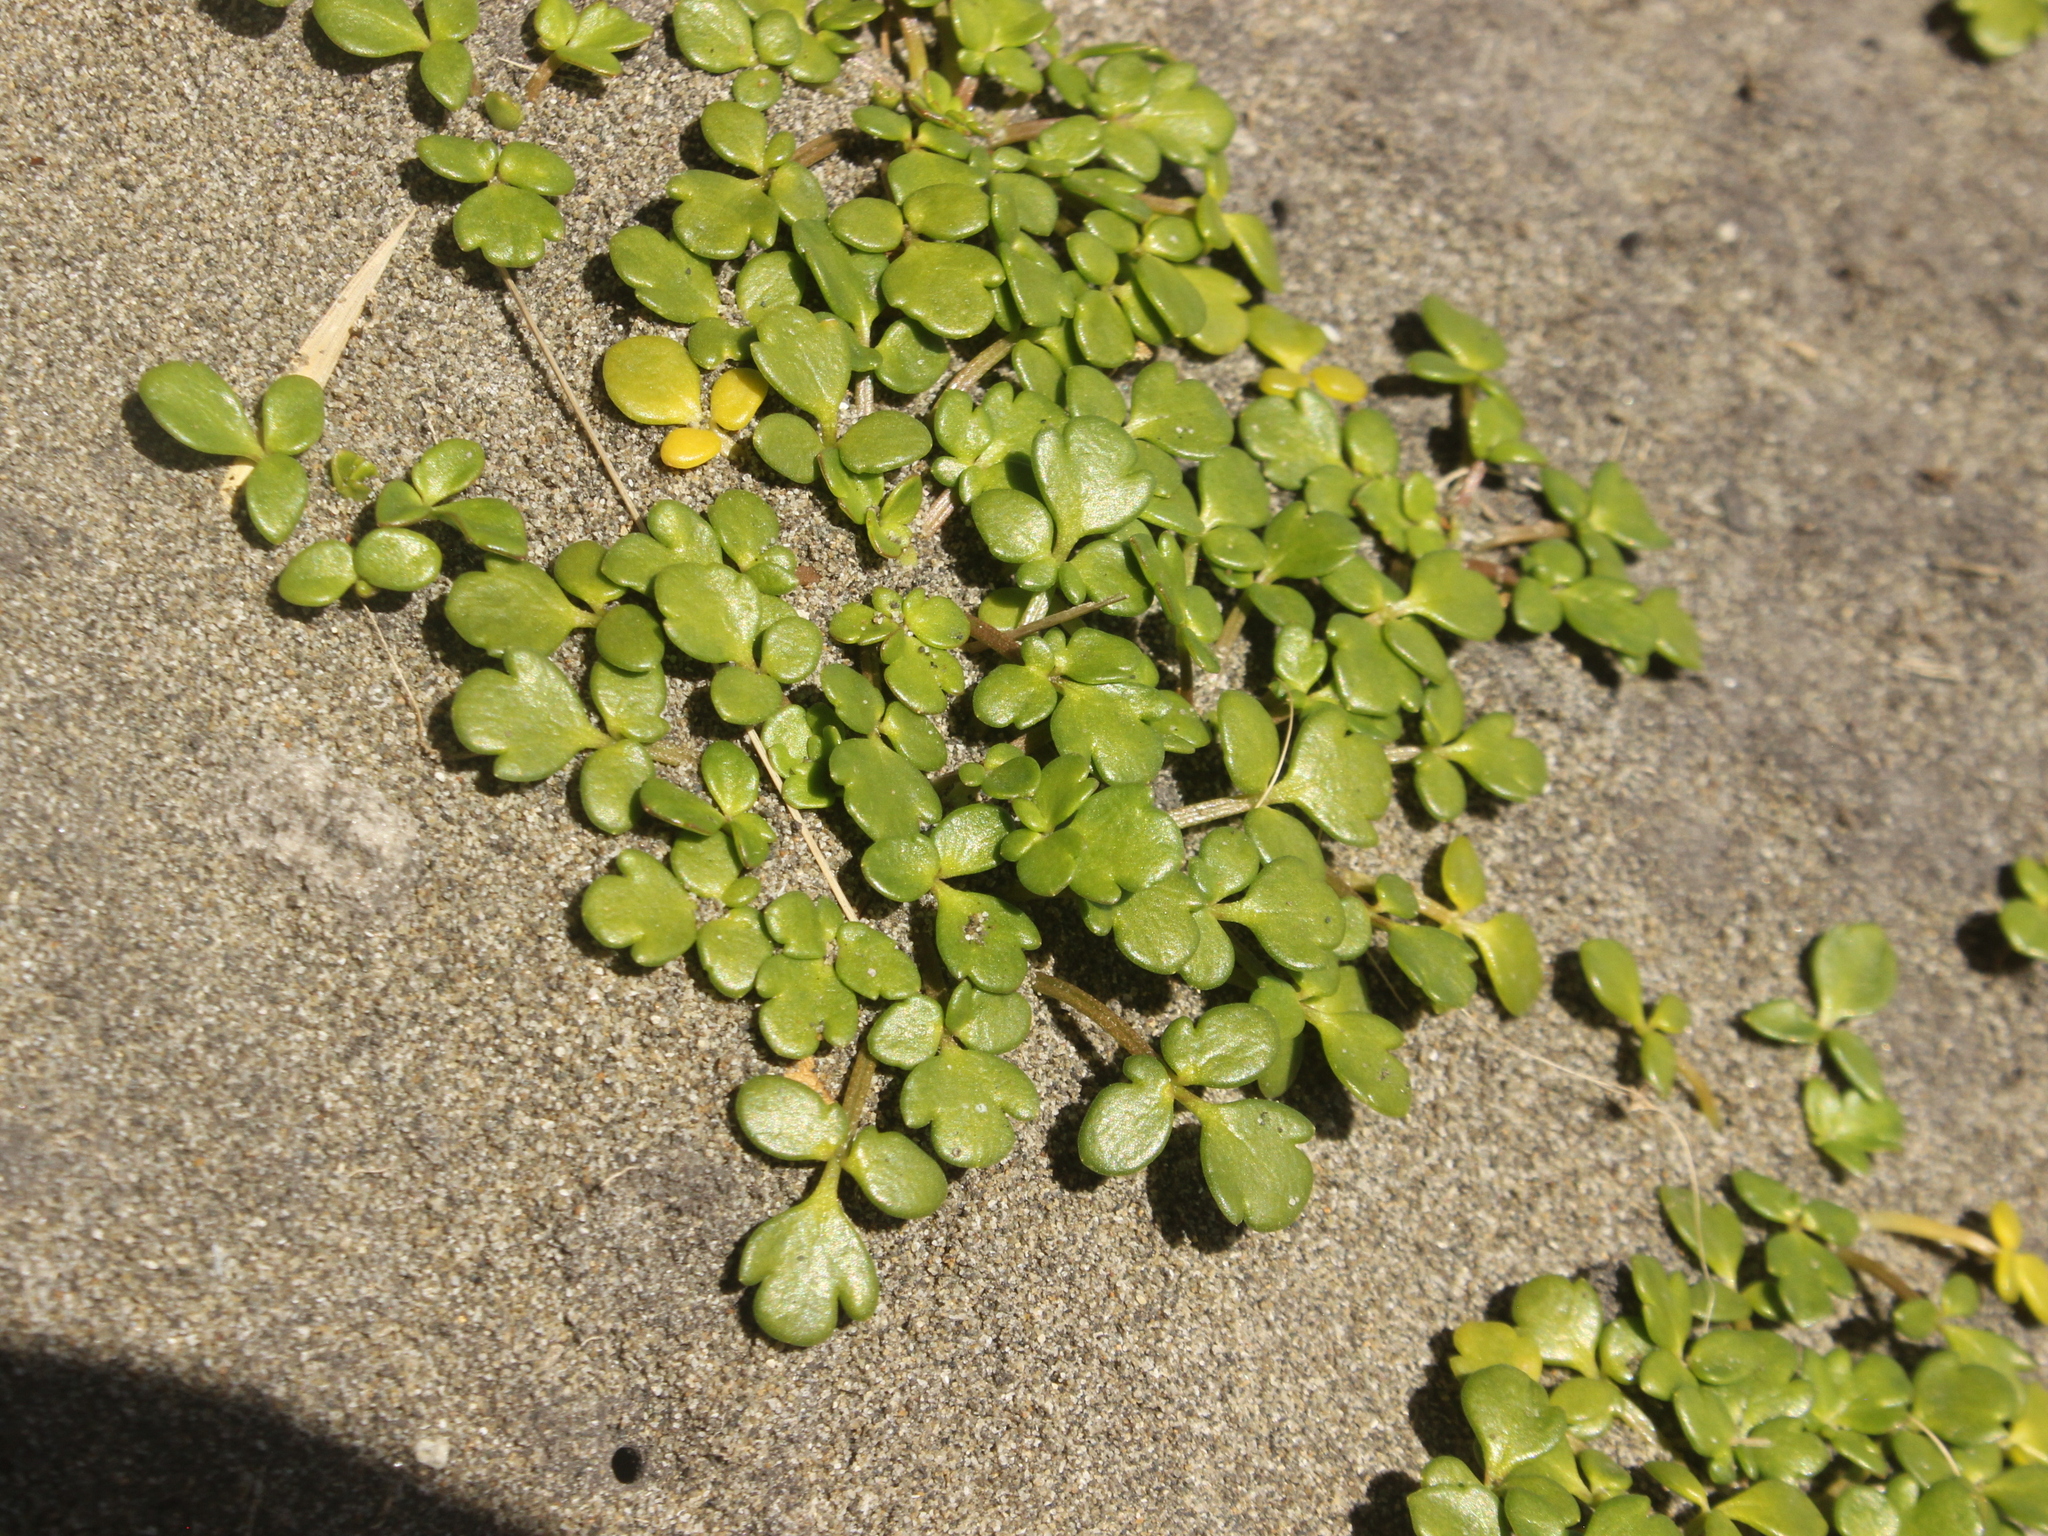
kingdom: Plantae
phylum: Tracheophyta
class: Magnoliopsida
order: Ranunculales
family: Ranunculaceae
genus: Ranunculus
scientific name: Ranunculus acaulis
